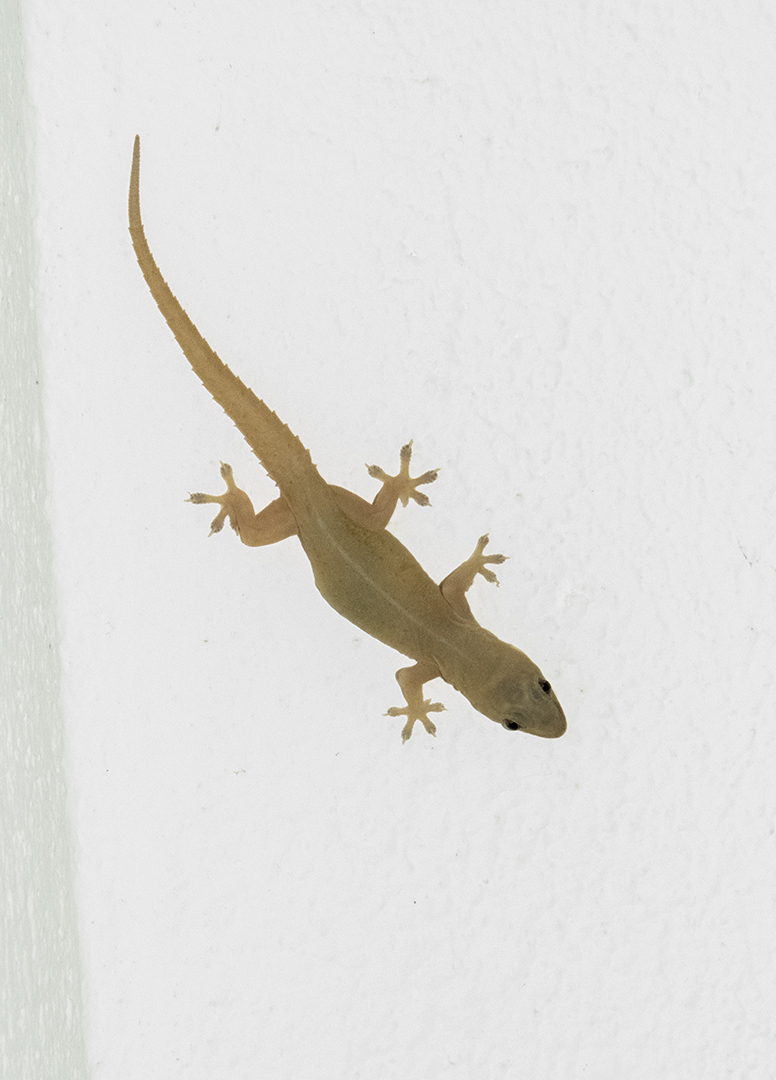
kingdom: Animalia
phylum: Chordata
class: Squamata
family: Gekkonidae
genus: Hemidactylus
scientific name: Hemidactylus frenatus
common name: Common house gecko
